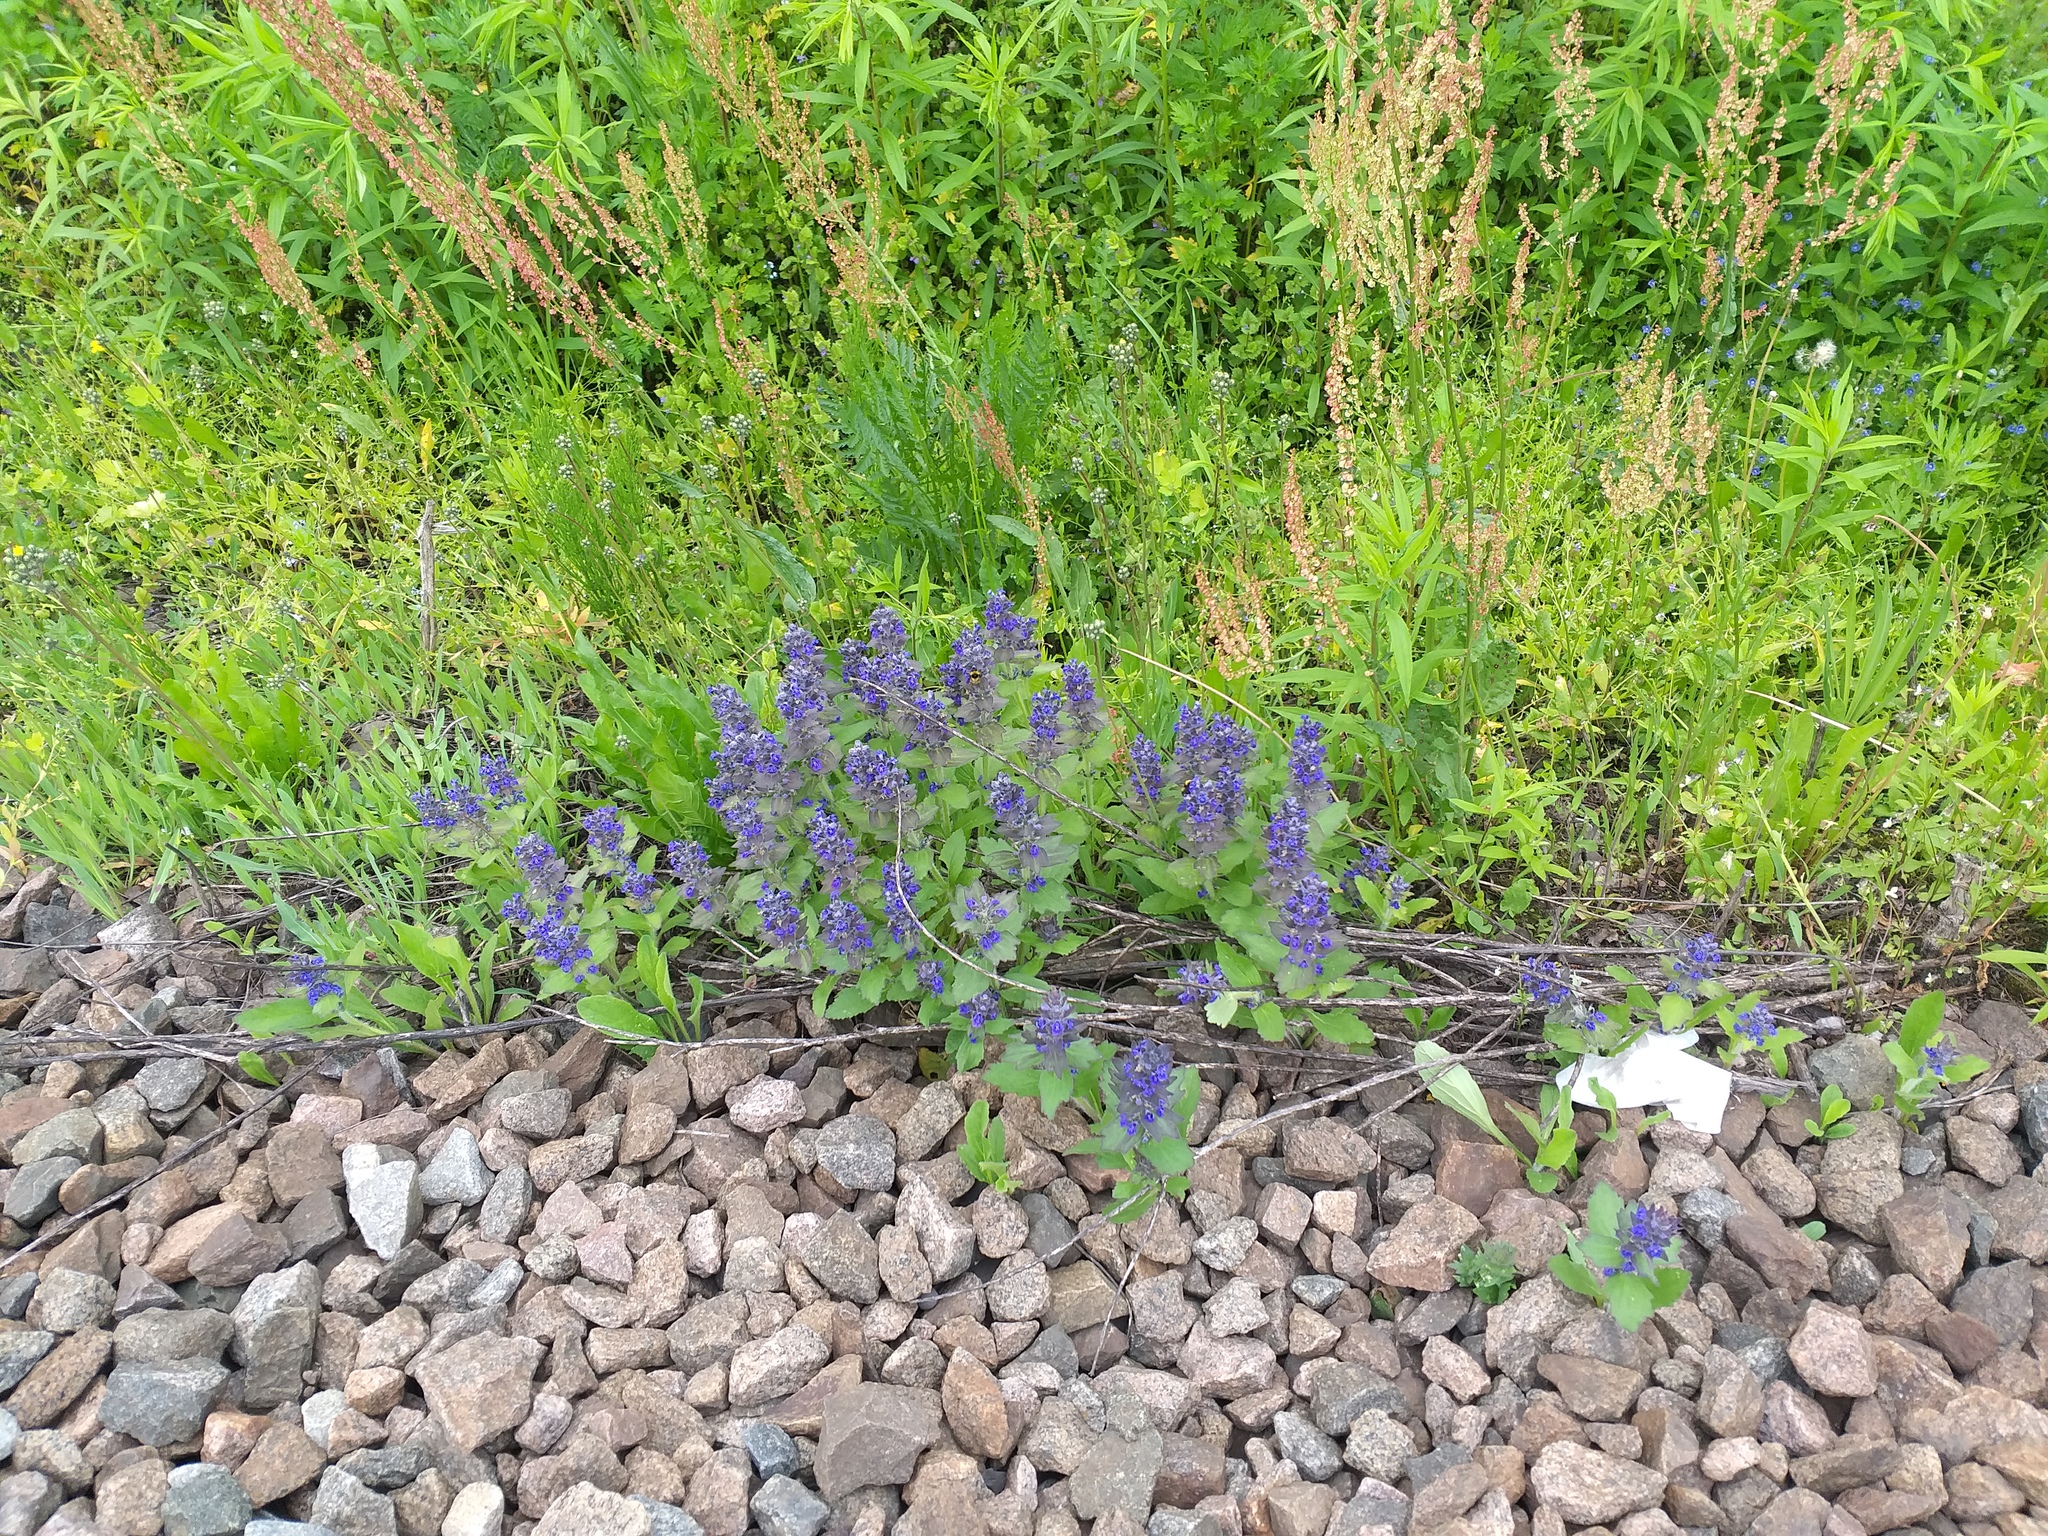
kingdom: Plantae
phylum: Tracheophyta
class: Magnoliopsida
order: Lamiales
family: Lamiaceae
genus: Ajuga
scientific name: Ajuga genevensis
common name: Blue bugle
